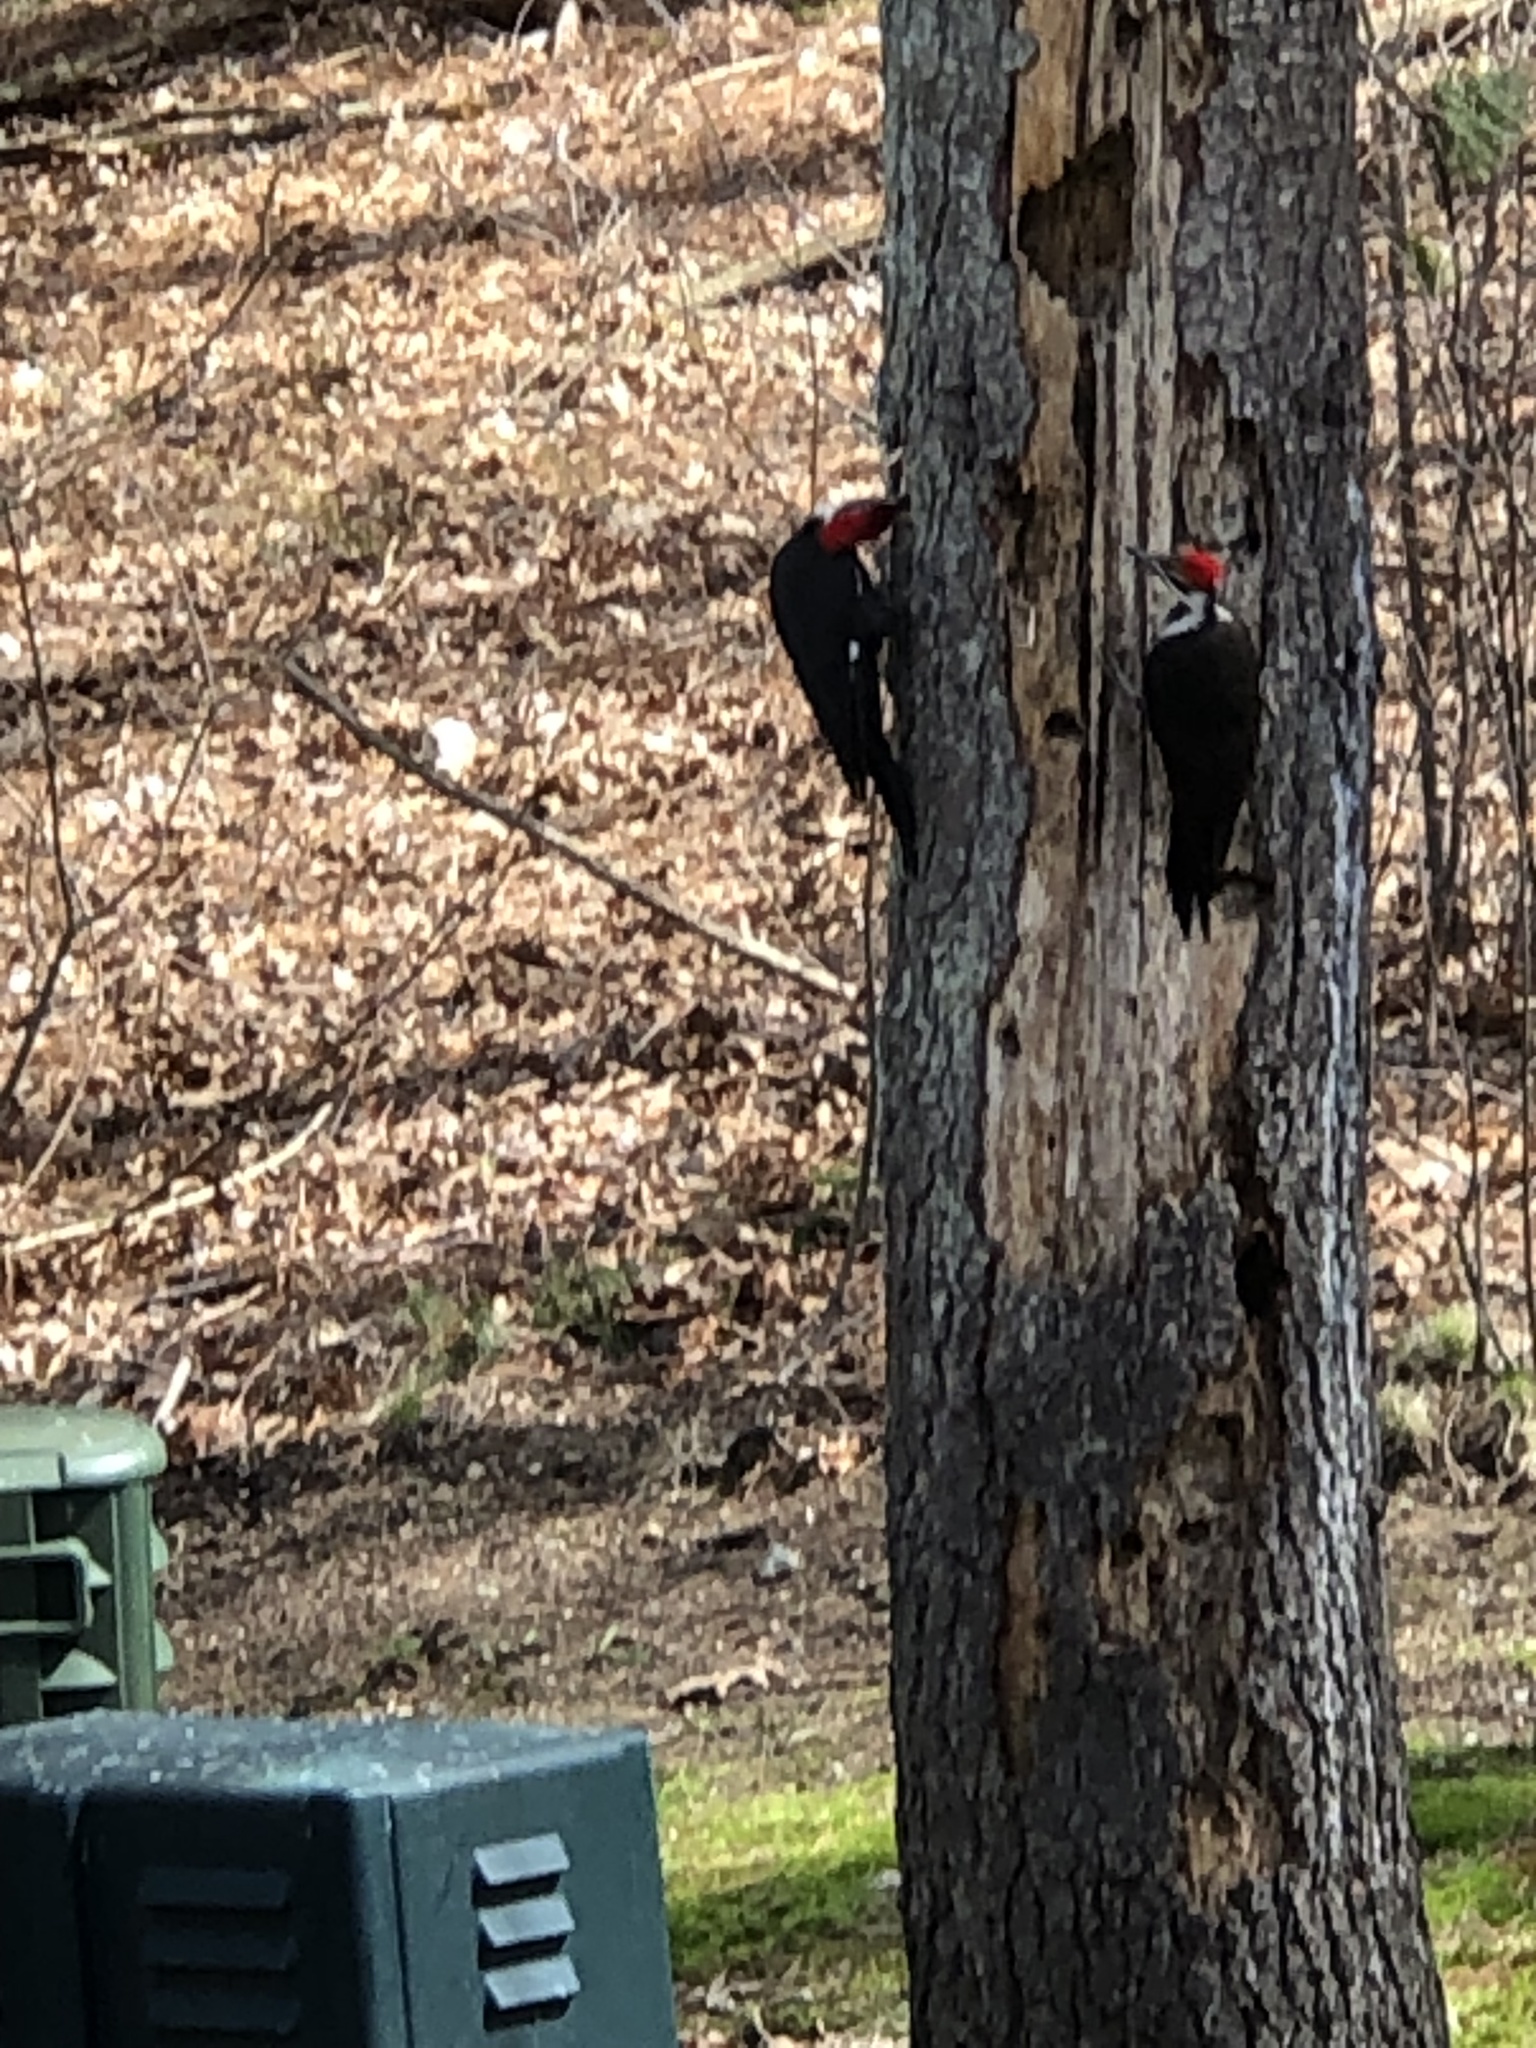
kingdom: Animalia
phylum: Chordata
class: Aves
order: Piciformes
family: Picidae
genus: Dryocopus
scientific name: Dryocopus pileatus
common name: Pileated woodpecker
